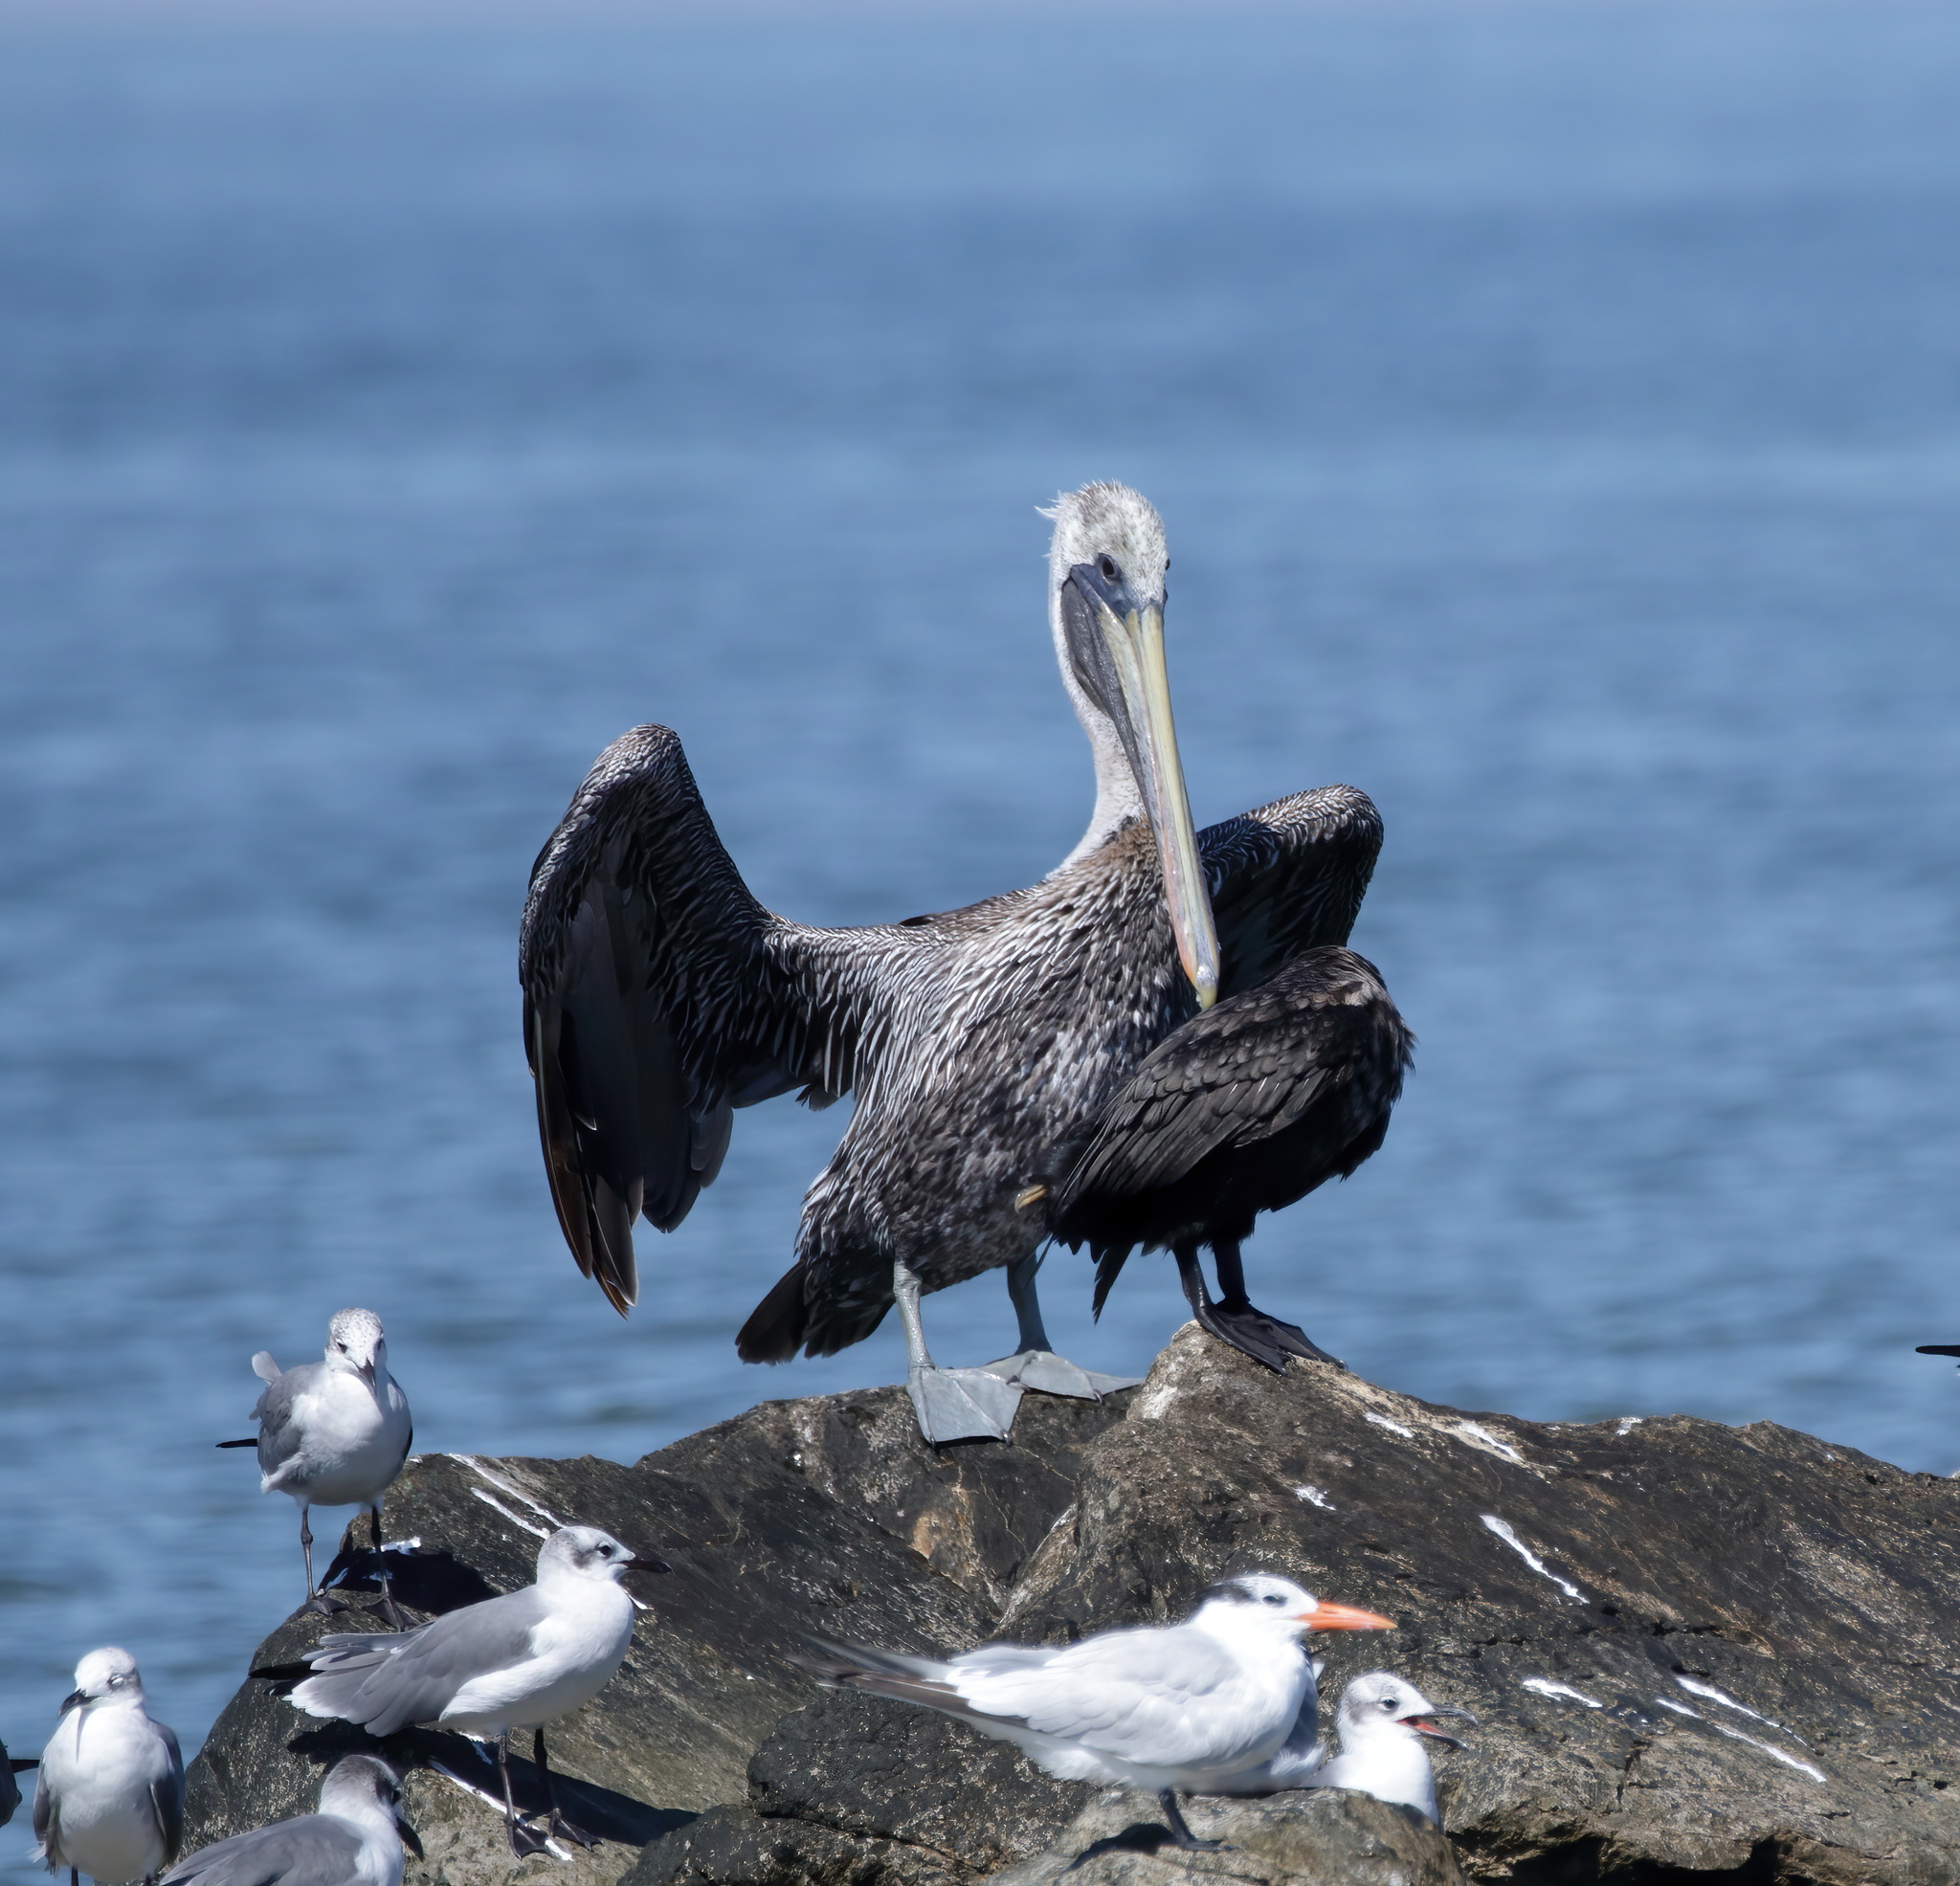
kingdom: Animalia
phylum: Chordata
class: Aves
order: Pelecaniformes
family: Pelecanidae
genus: Pelecanus
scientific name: Pelecanus occidentalis
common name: Brown pelican
